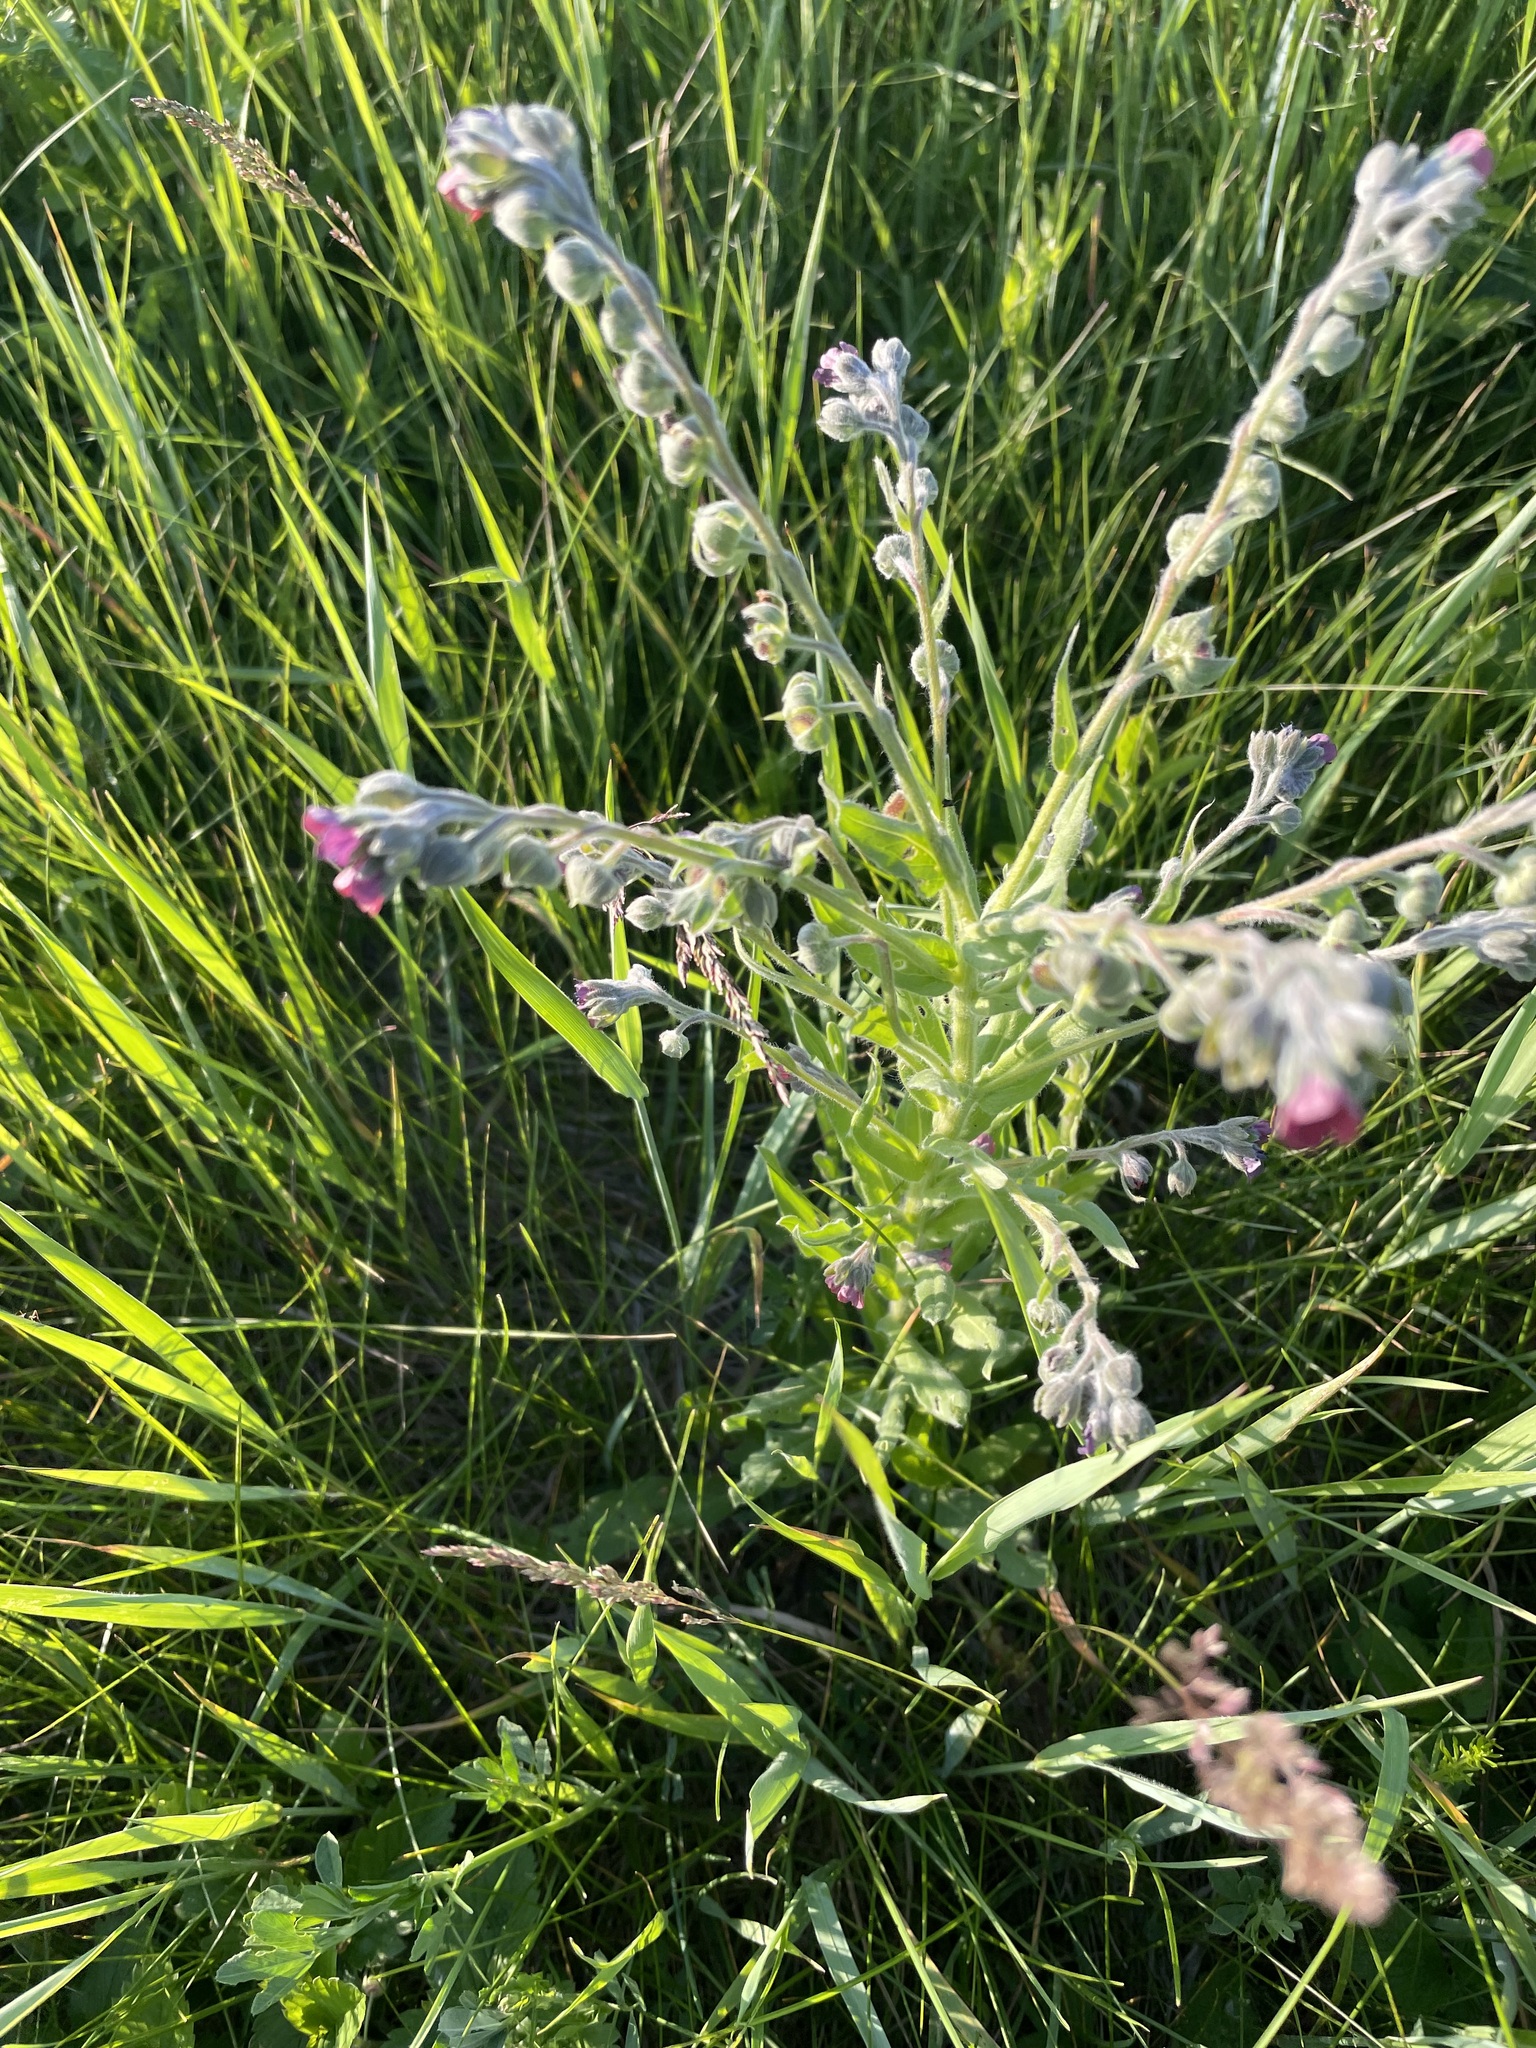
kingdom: Plantae
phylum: Tracheophyta
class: Magnoliopsida
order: Boraginales
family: Boraginaceae
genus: Cynoglossum
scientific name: Cynoglossum officinale
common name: Hound's-tongue
